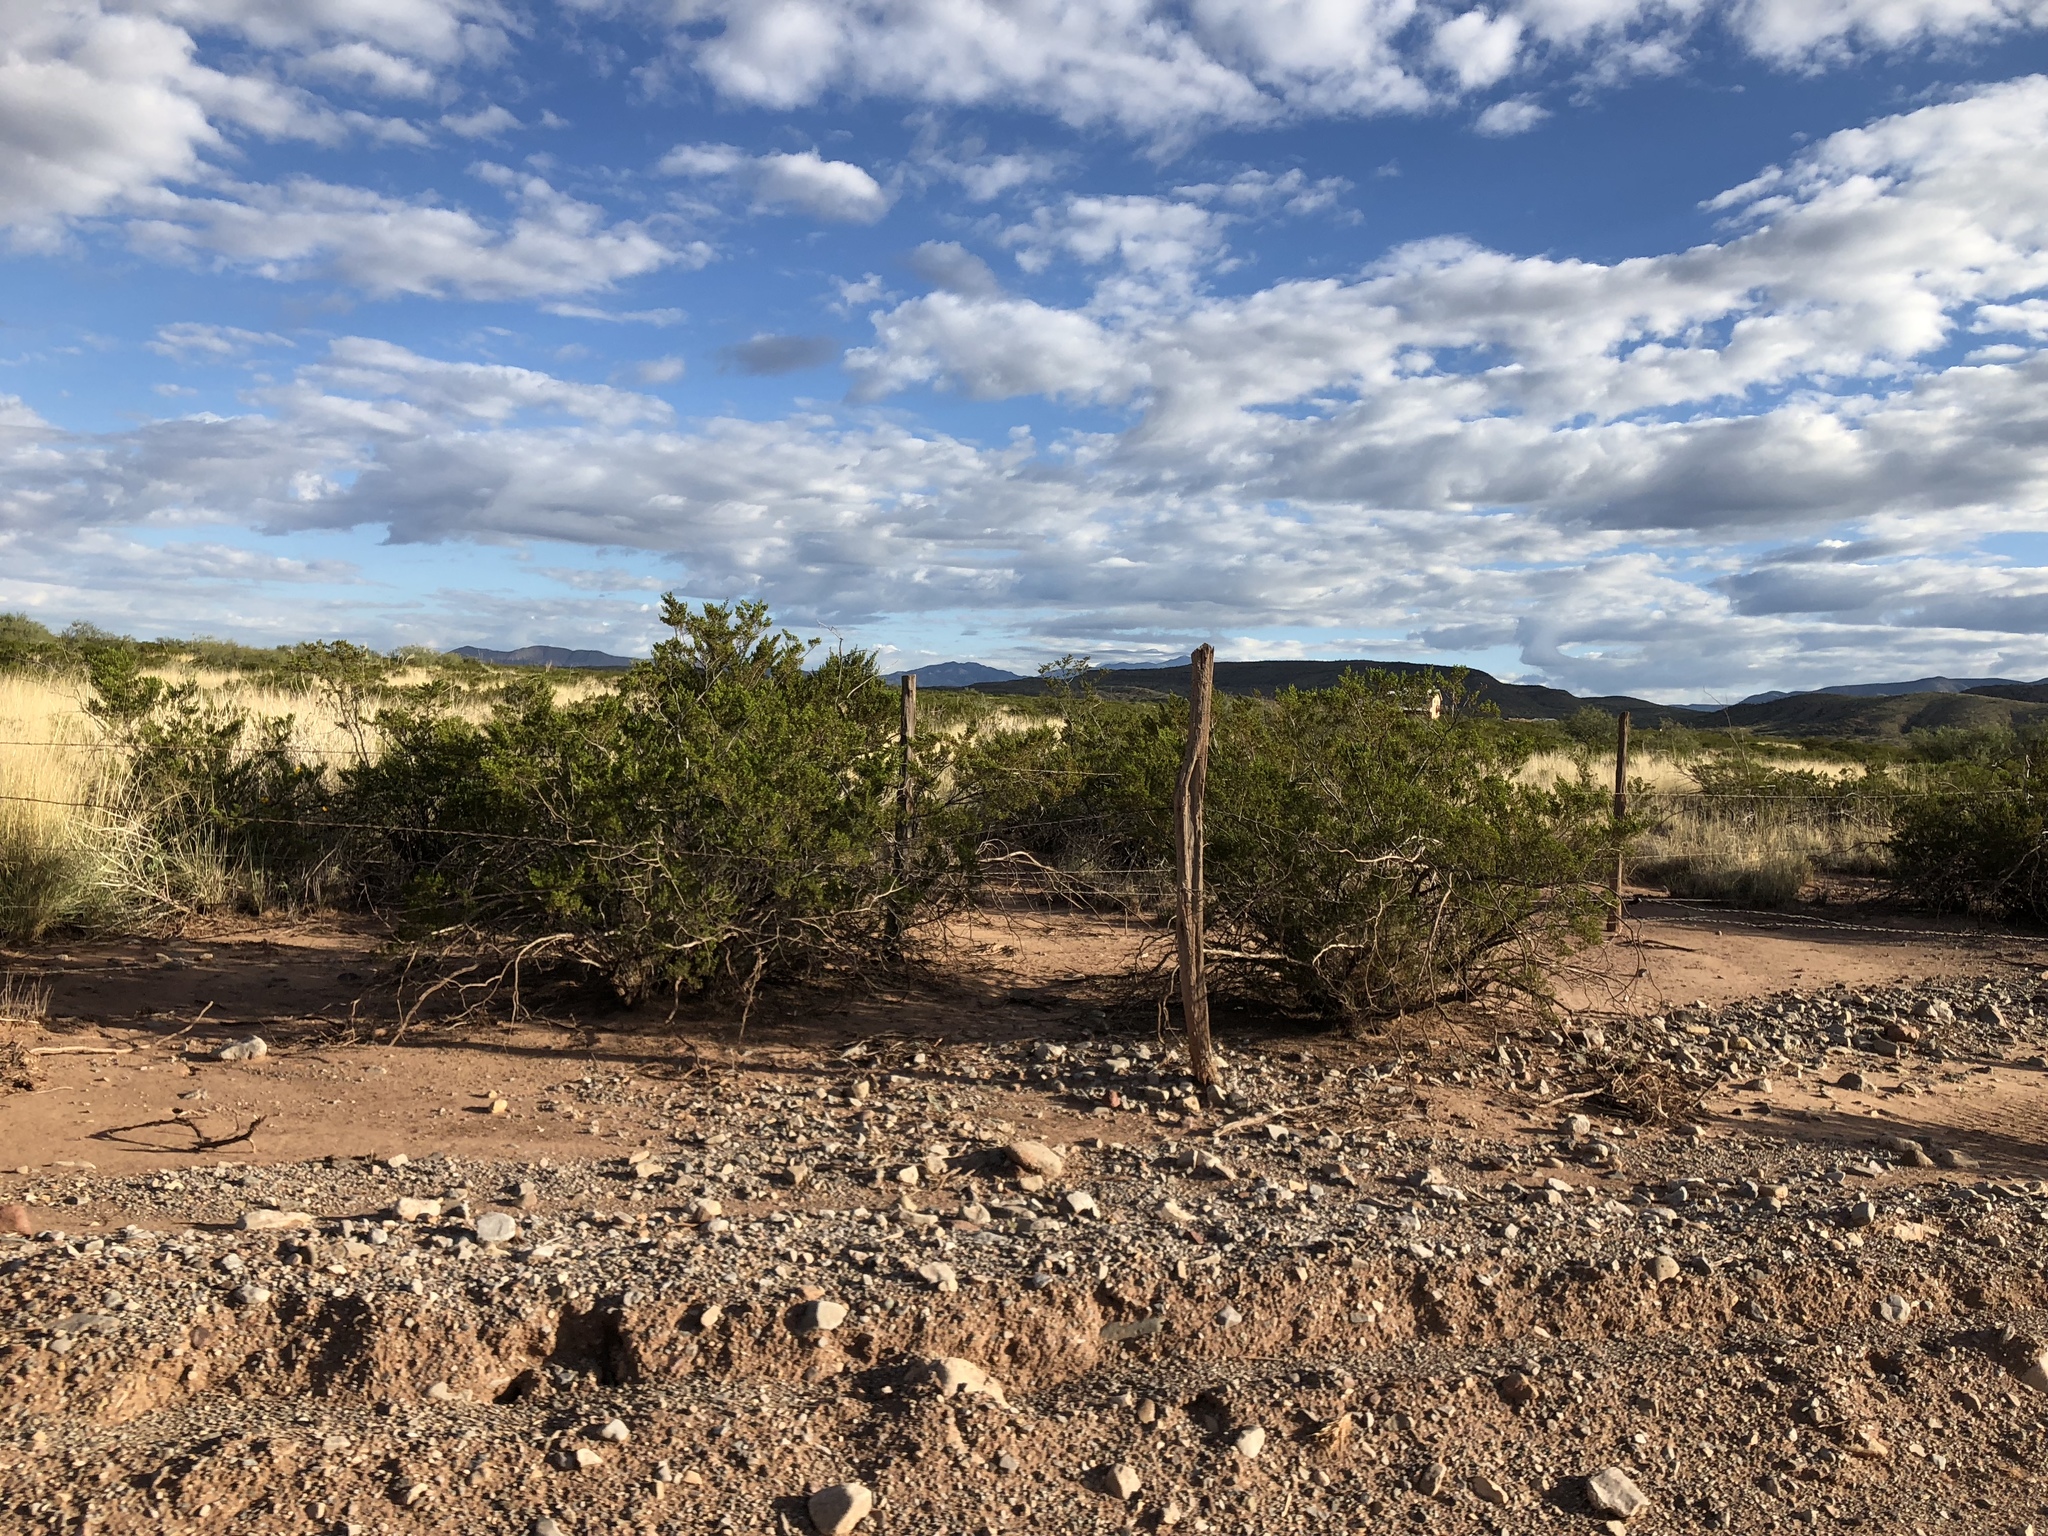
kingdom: Plantae
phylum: Tracheophyta
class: Magnoliopsida
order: Zygophyllales
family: Zygophyllaceae
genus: Larrea
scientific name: Larrea tridentata
